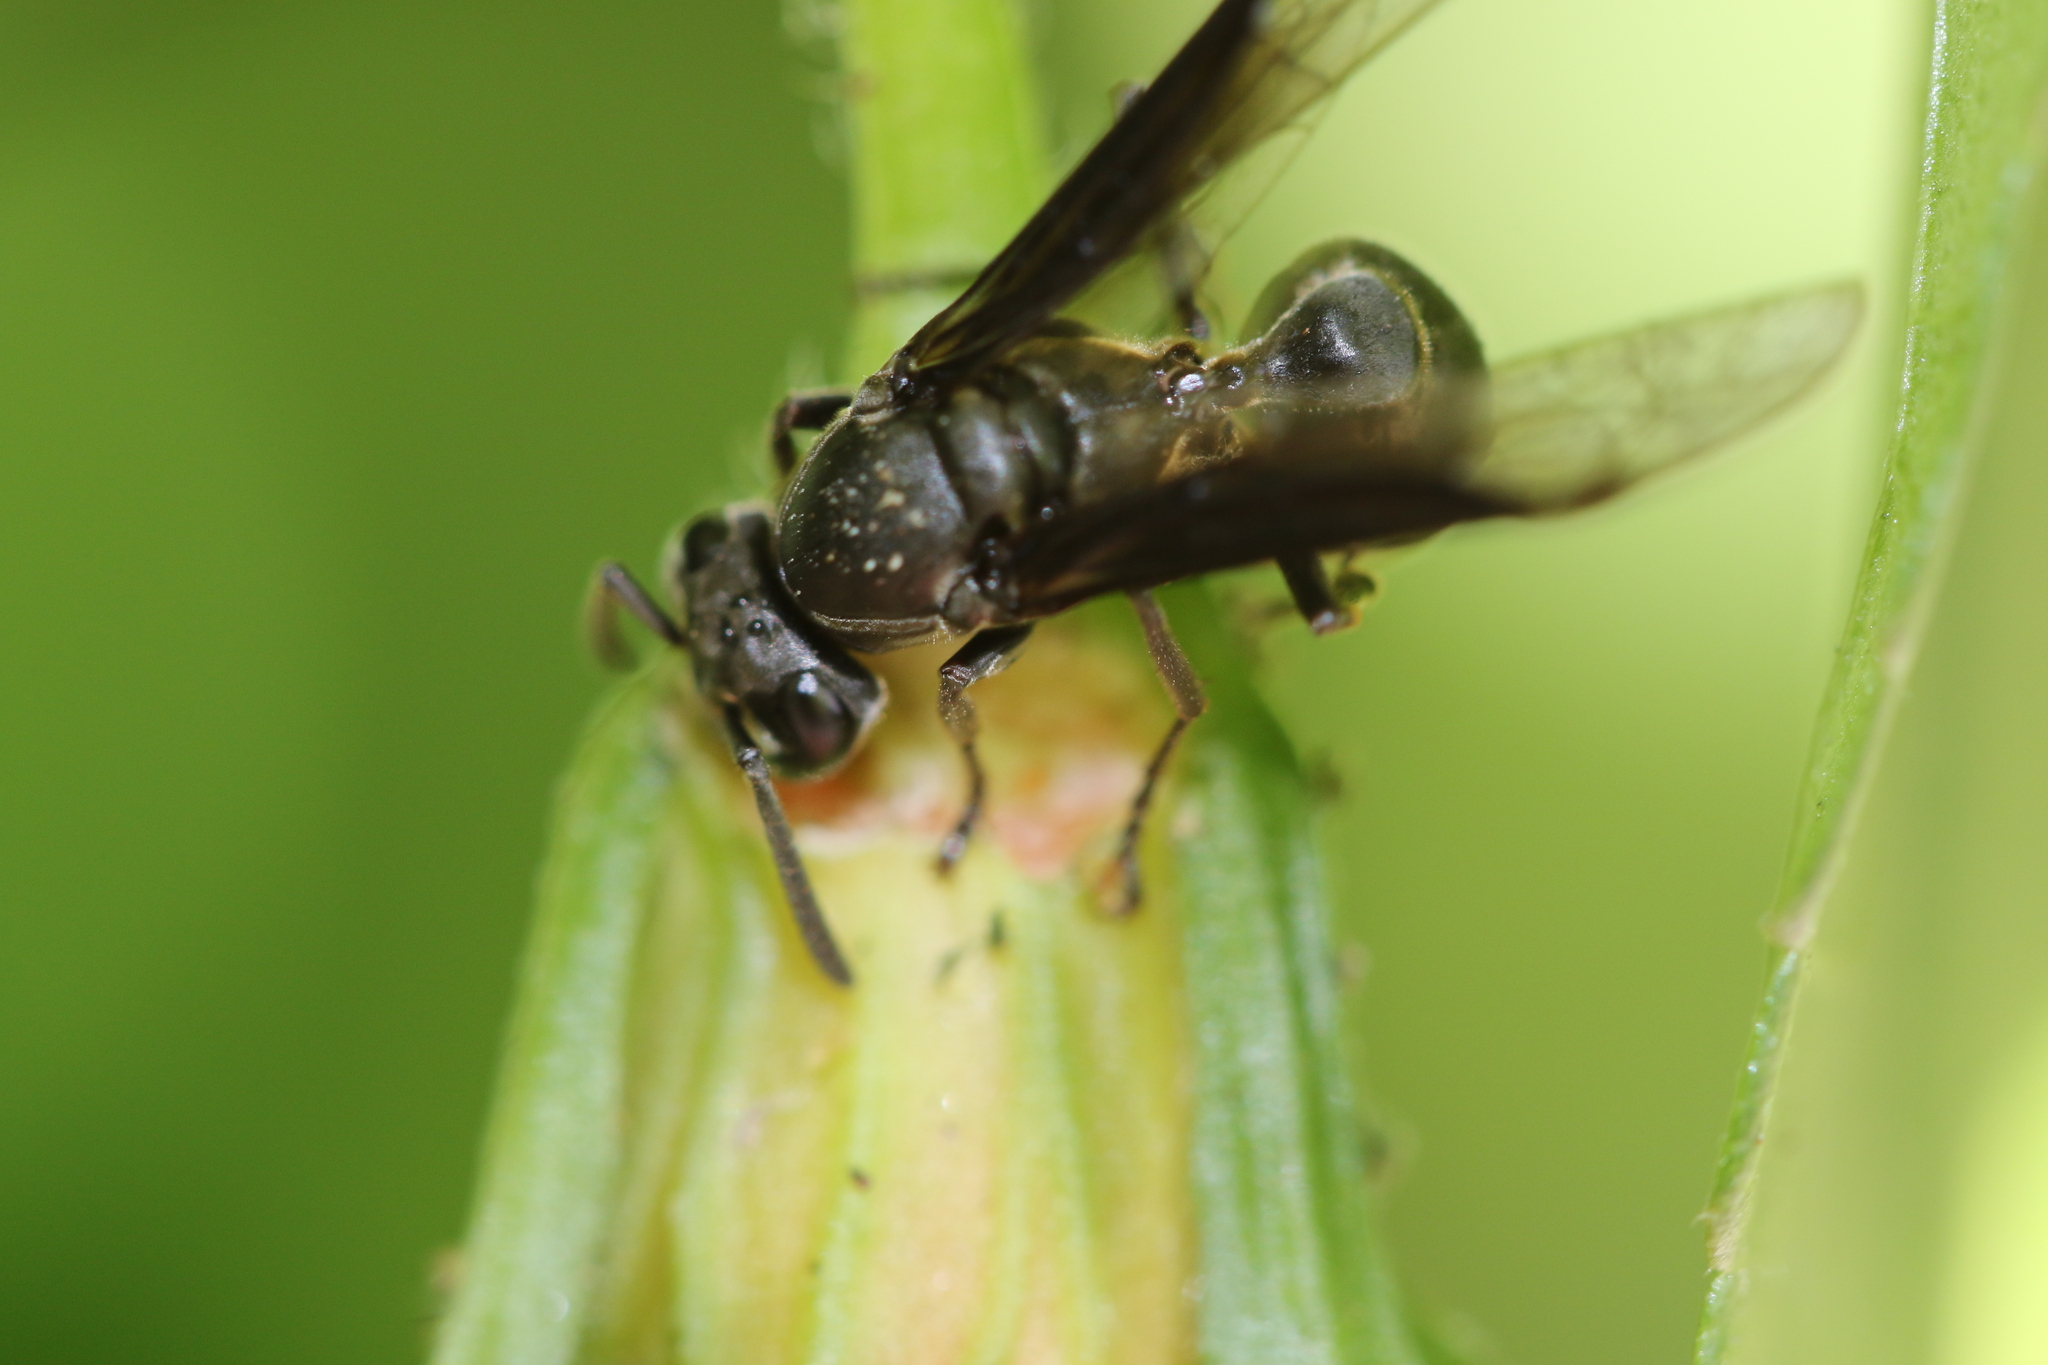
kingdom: Animalia
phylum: Arthropoda
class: Insecta
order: Hymenoptera
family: Eumenidae
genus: Polybia
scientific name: Polybia ignobilis
